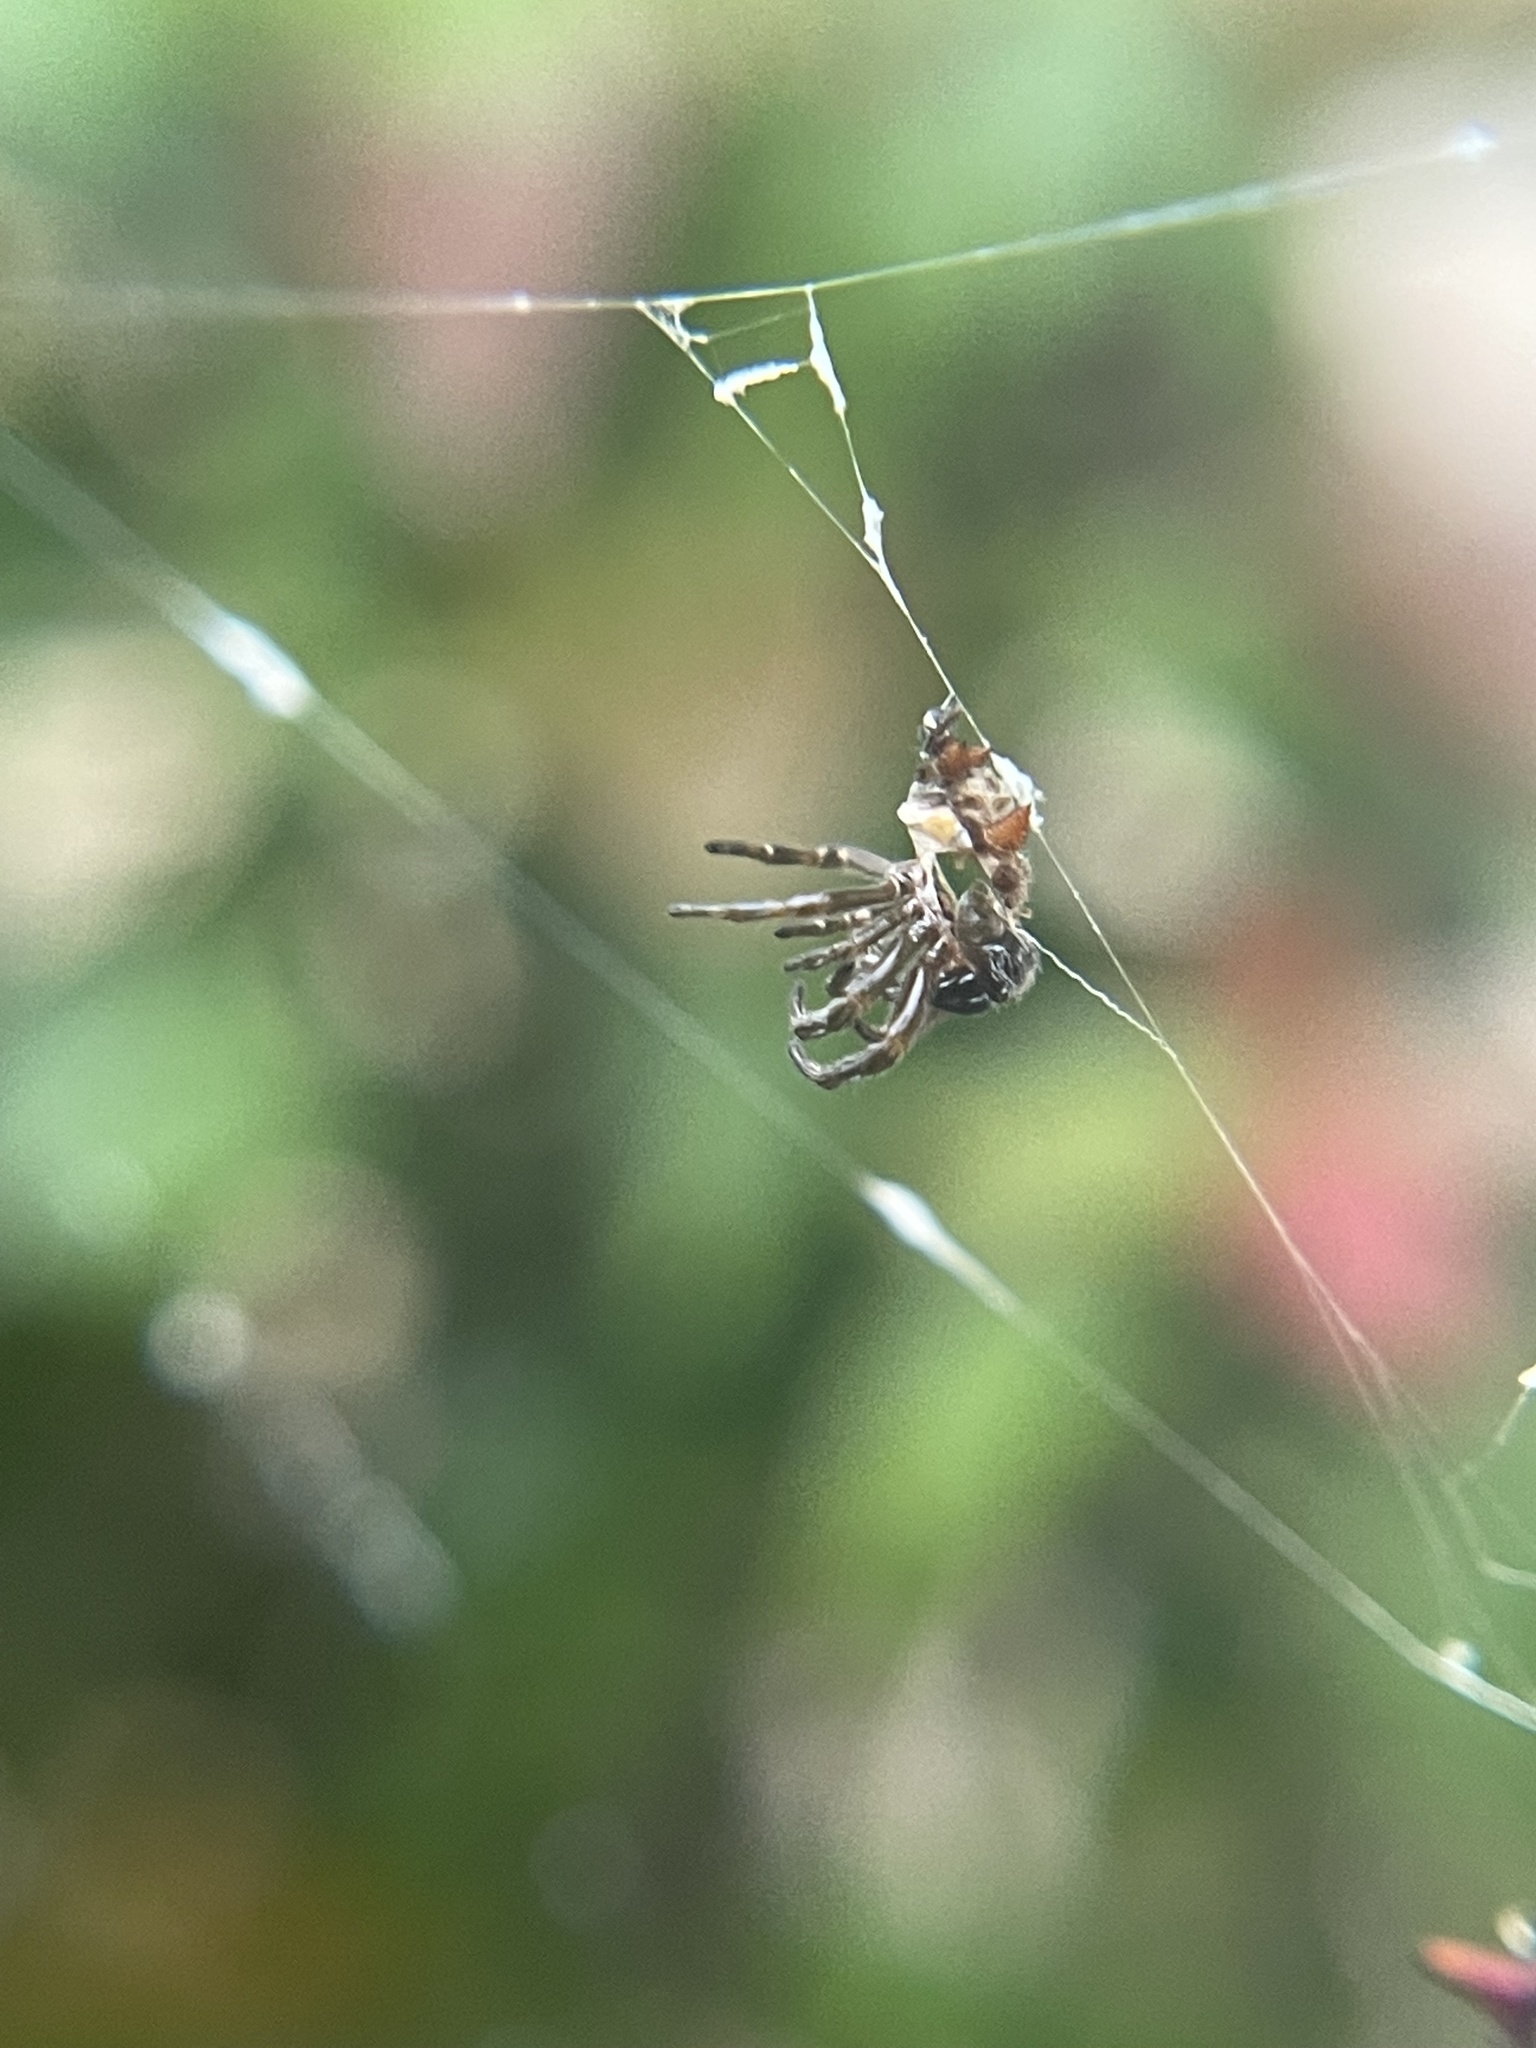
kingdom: Animalia
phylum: Arthropoda
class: Arachnida
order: Araneae
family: Araneidae
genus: Gasteracantha
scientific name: Gasteracantha cancriformis
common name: Orb weavers
